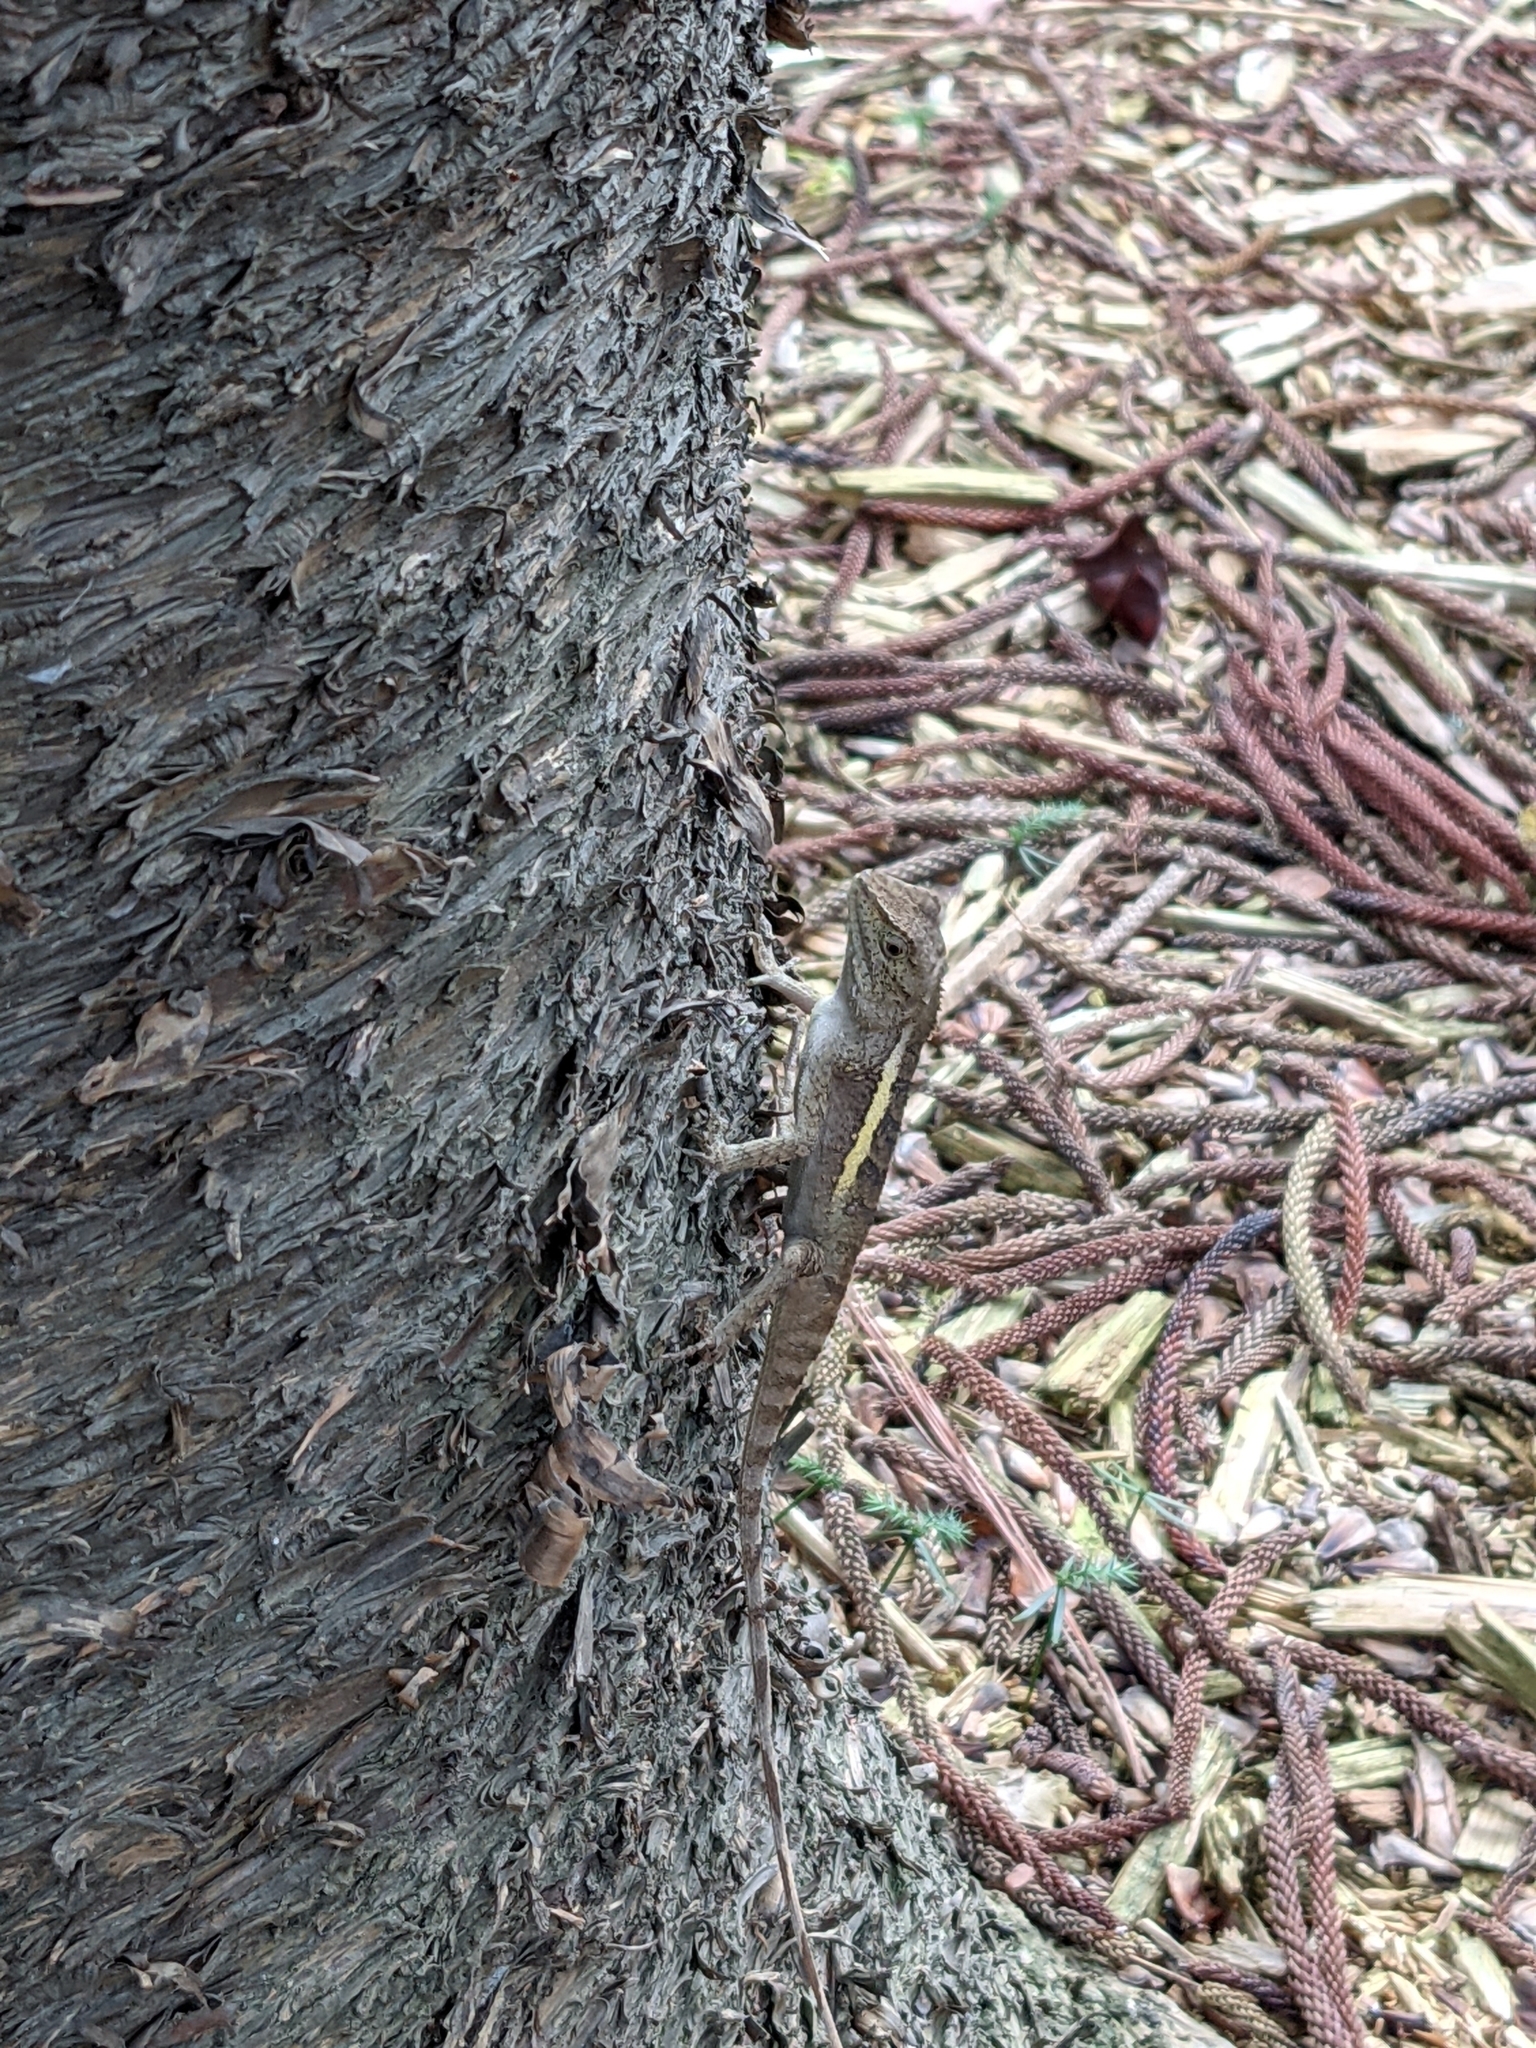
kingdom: Animalia
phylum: Chordata
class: Squamata
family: Agamidae
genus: Diploderma
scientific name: Diploderma swinhonis
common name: Taiwan japalure
